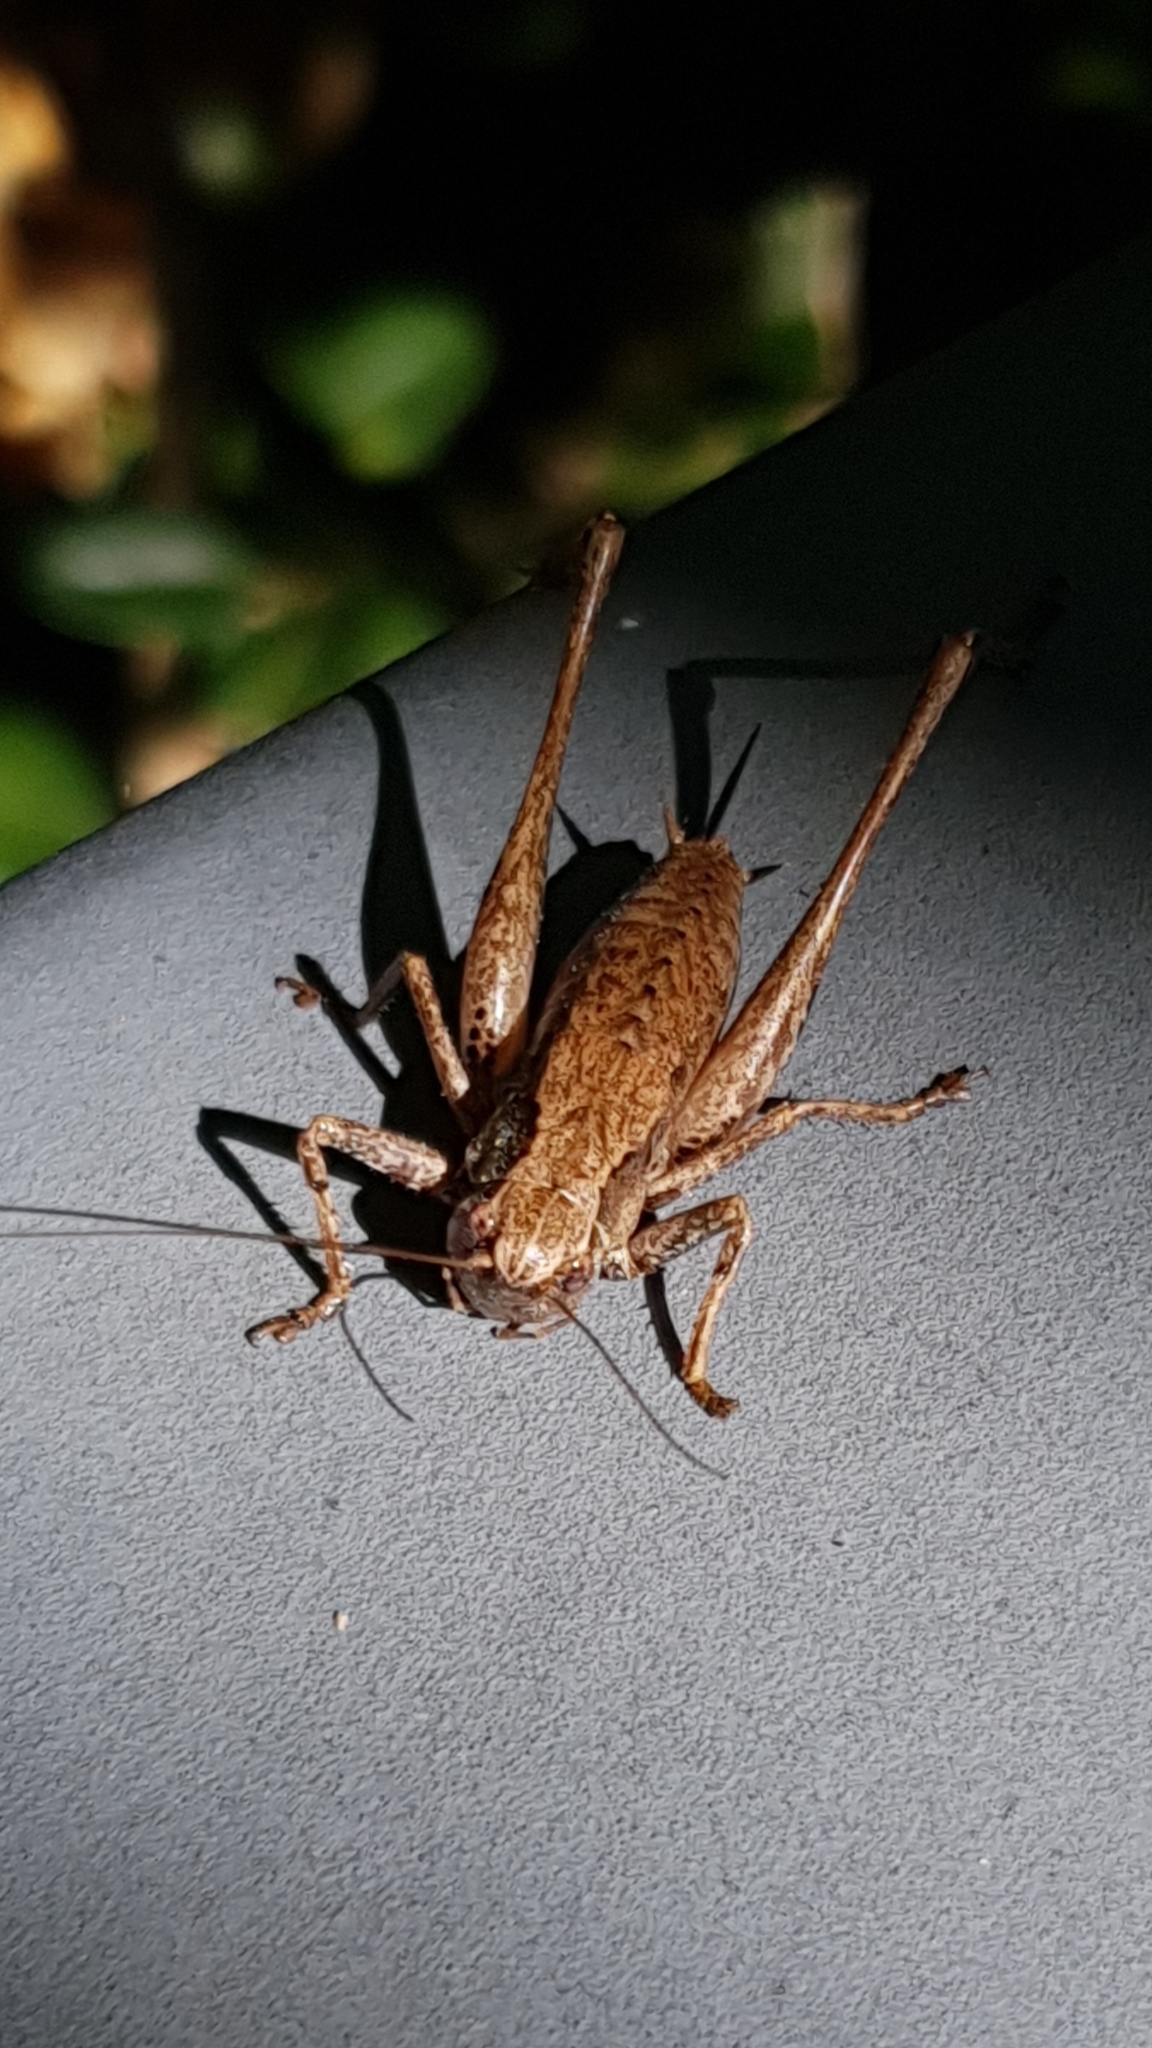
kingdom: Animalia
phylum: Arthropoda
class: Insecta
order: Orthoptera
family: Tettigoniidae
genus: Pholidoptera
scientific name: Pholidoptera griseoaptera
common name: Dark bush-cricket
